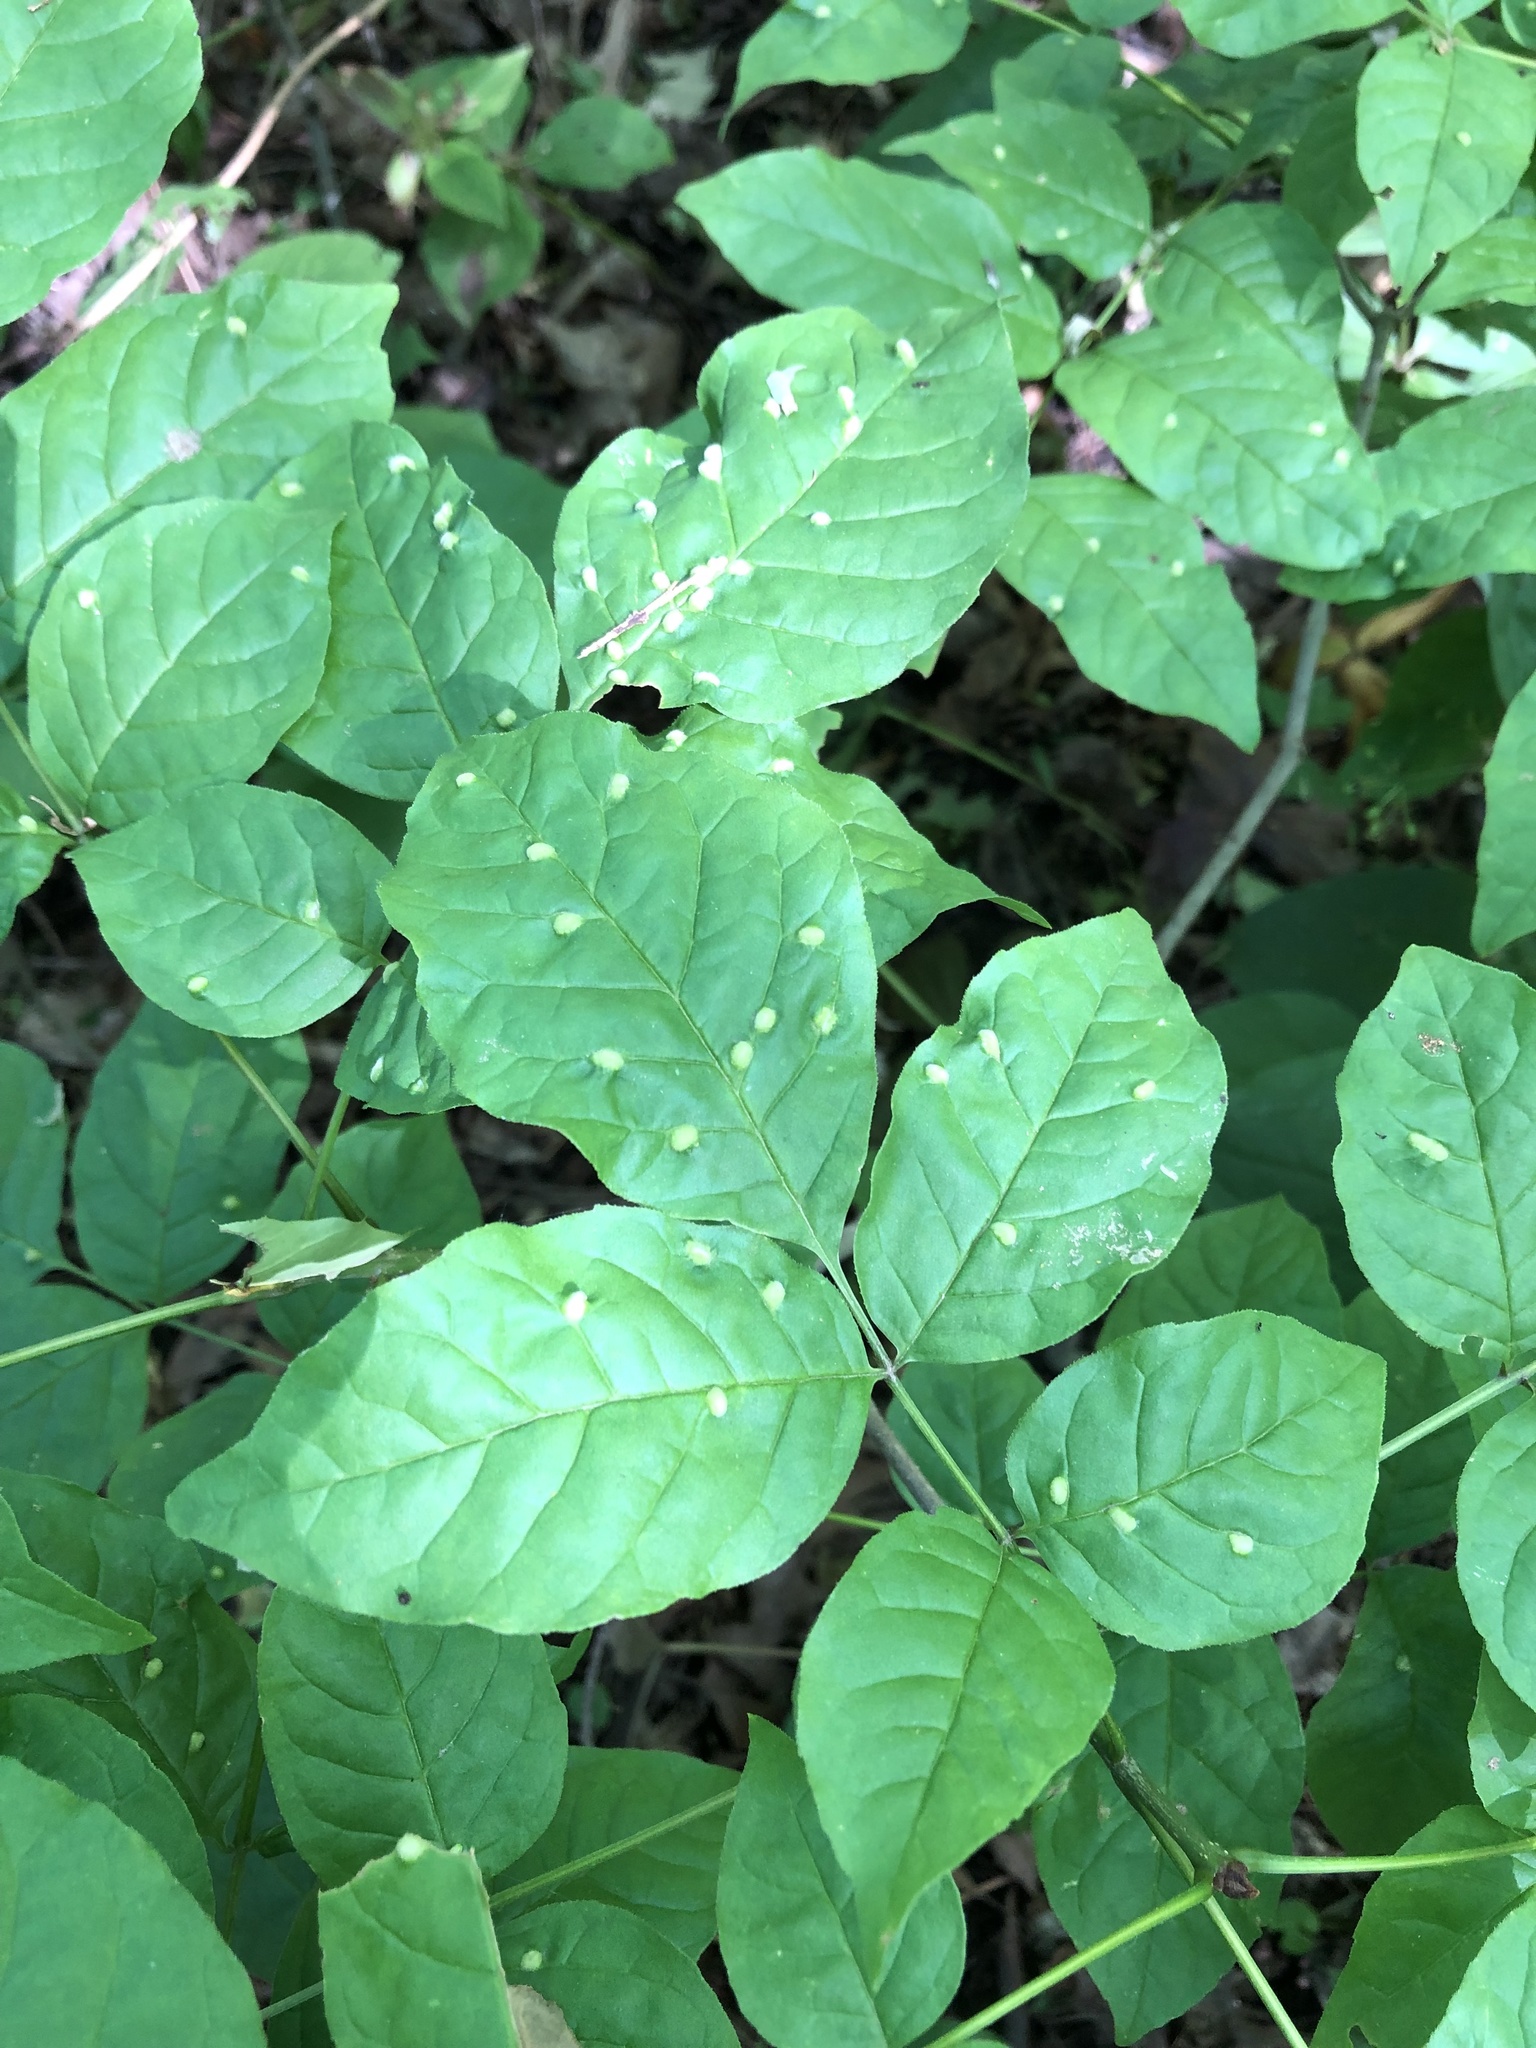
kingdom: Plantae
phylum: Tracheophyta
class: Magnoliopsida
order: Lamiales
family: Oleaceae
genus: Fraxinus
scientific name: Fraxinus americana
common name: White ash
